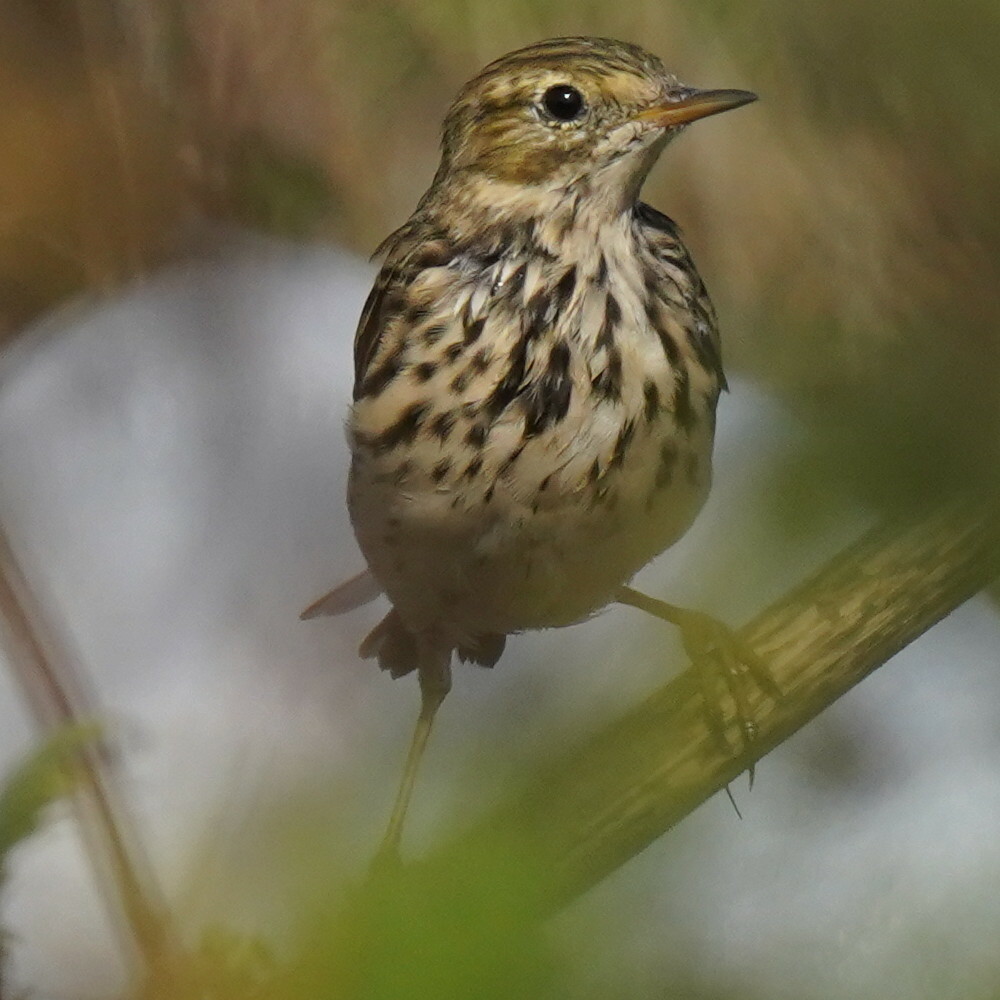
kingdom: Animalia
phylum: Chordata
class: Aves
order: Passeriformes
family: Motacillidae
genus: Anthus
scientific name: Anthus pratensis
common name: Meadow pipit
